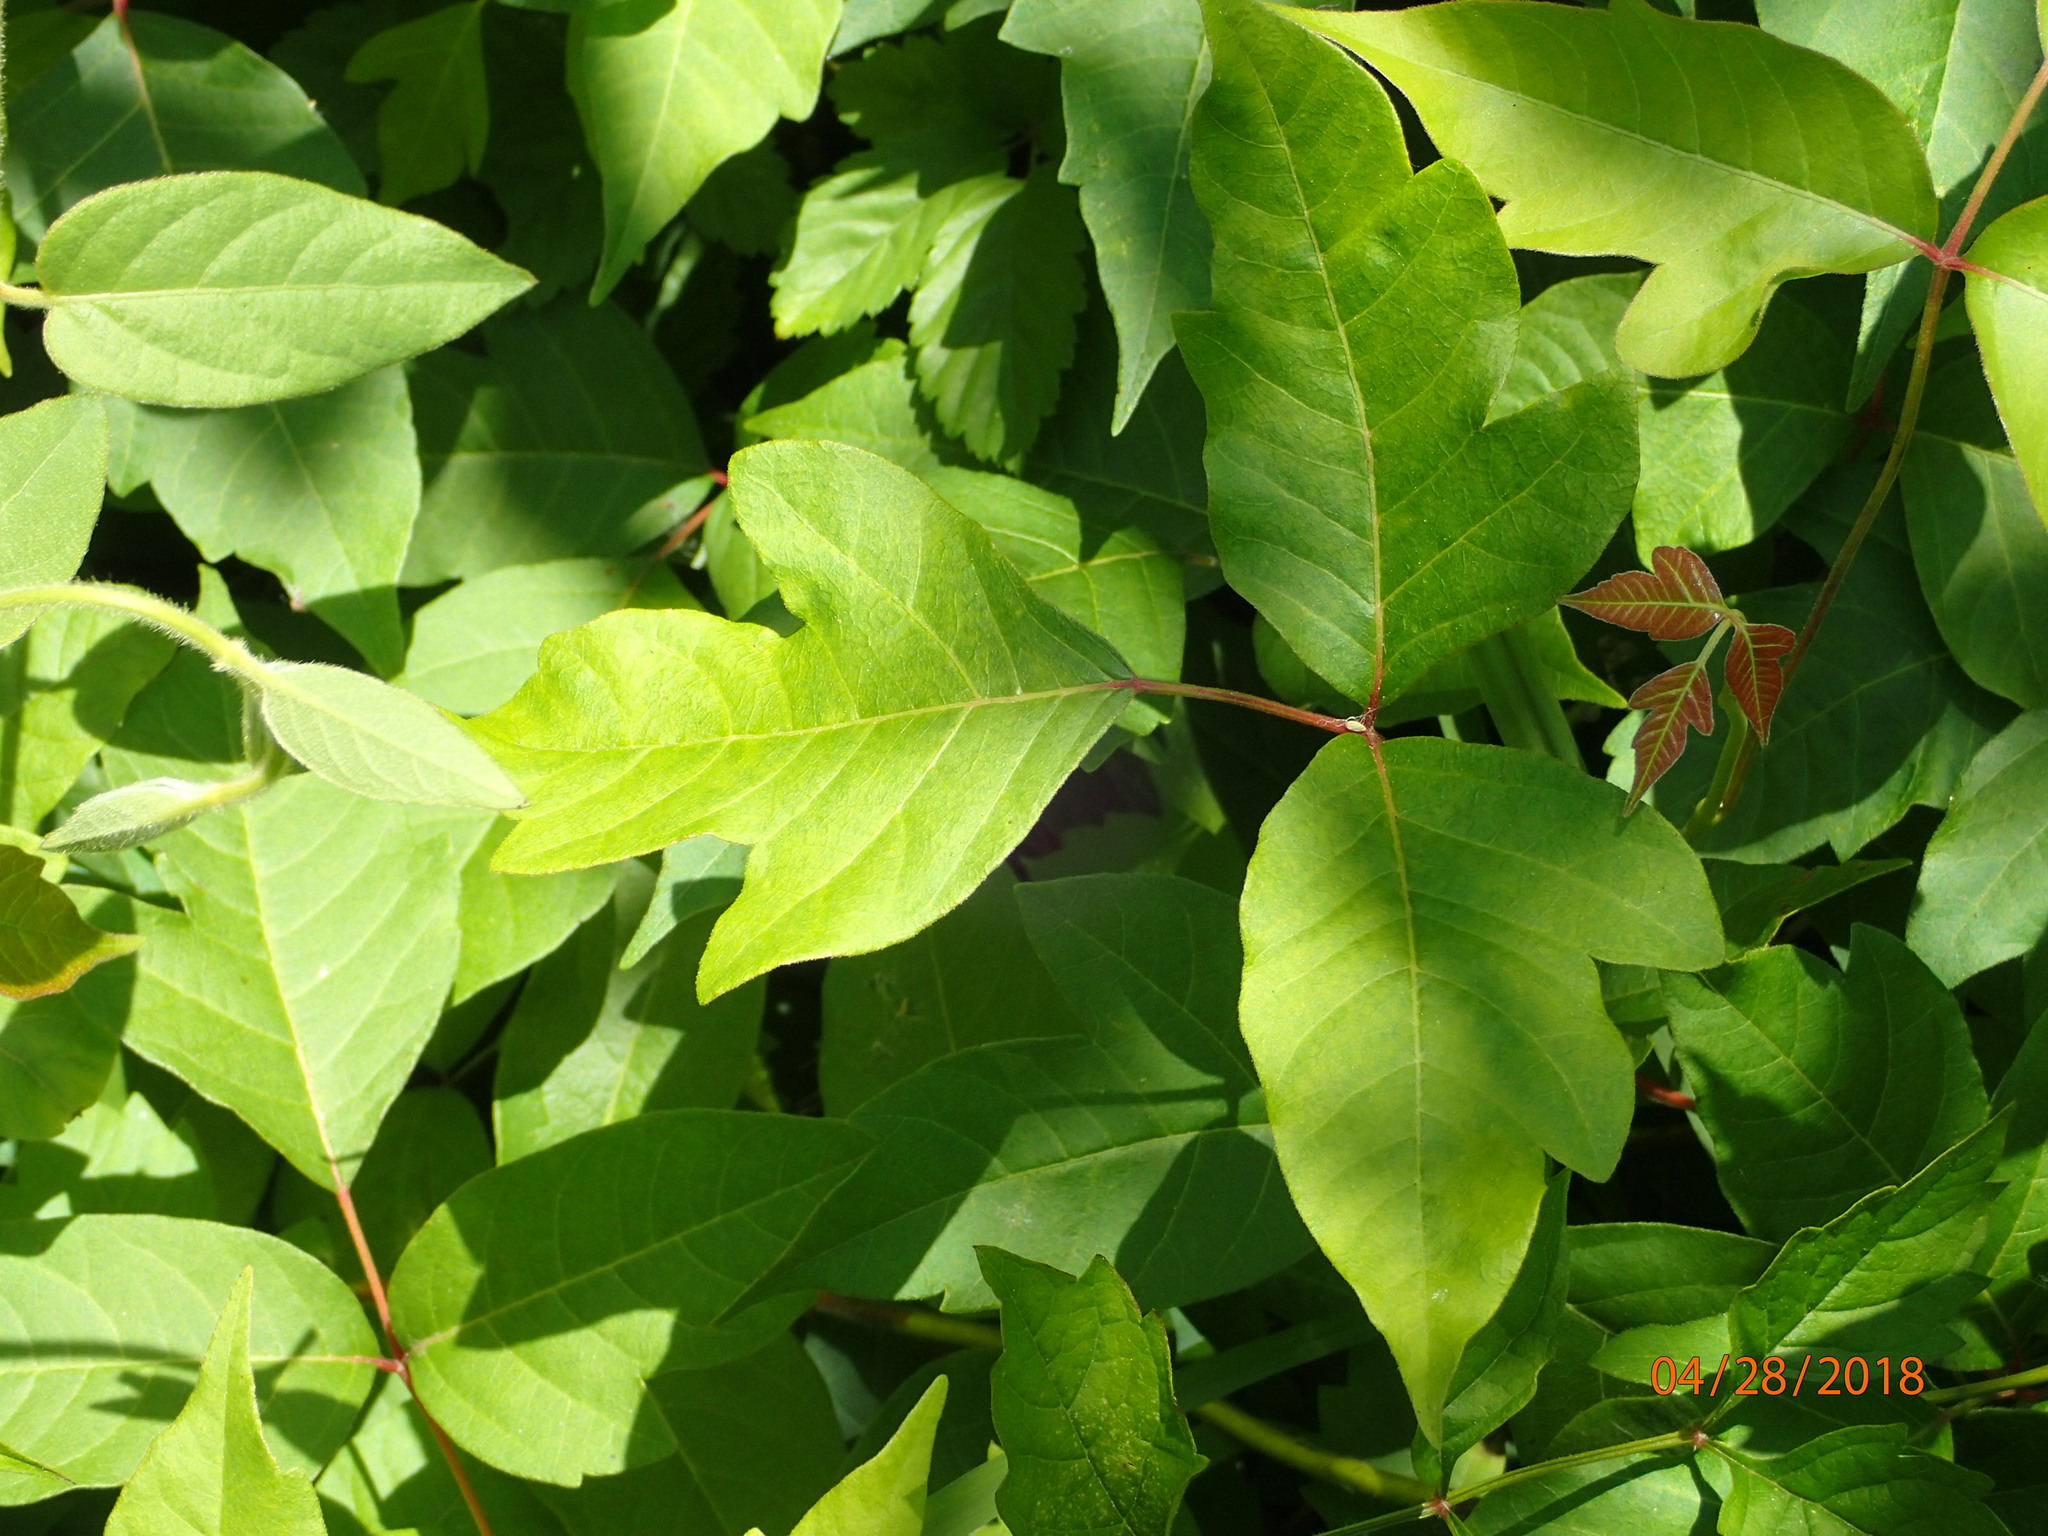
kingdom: Plantae
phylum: Tracheophyta
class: Magnoliopsida
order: Sapindales
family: Anacardiaceae
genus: Toxicodendron
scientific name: Toxicodendron radicans
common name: Poison ivy
